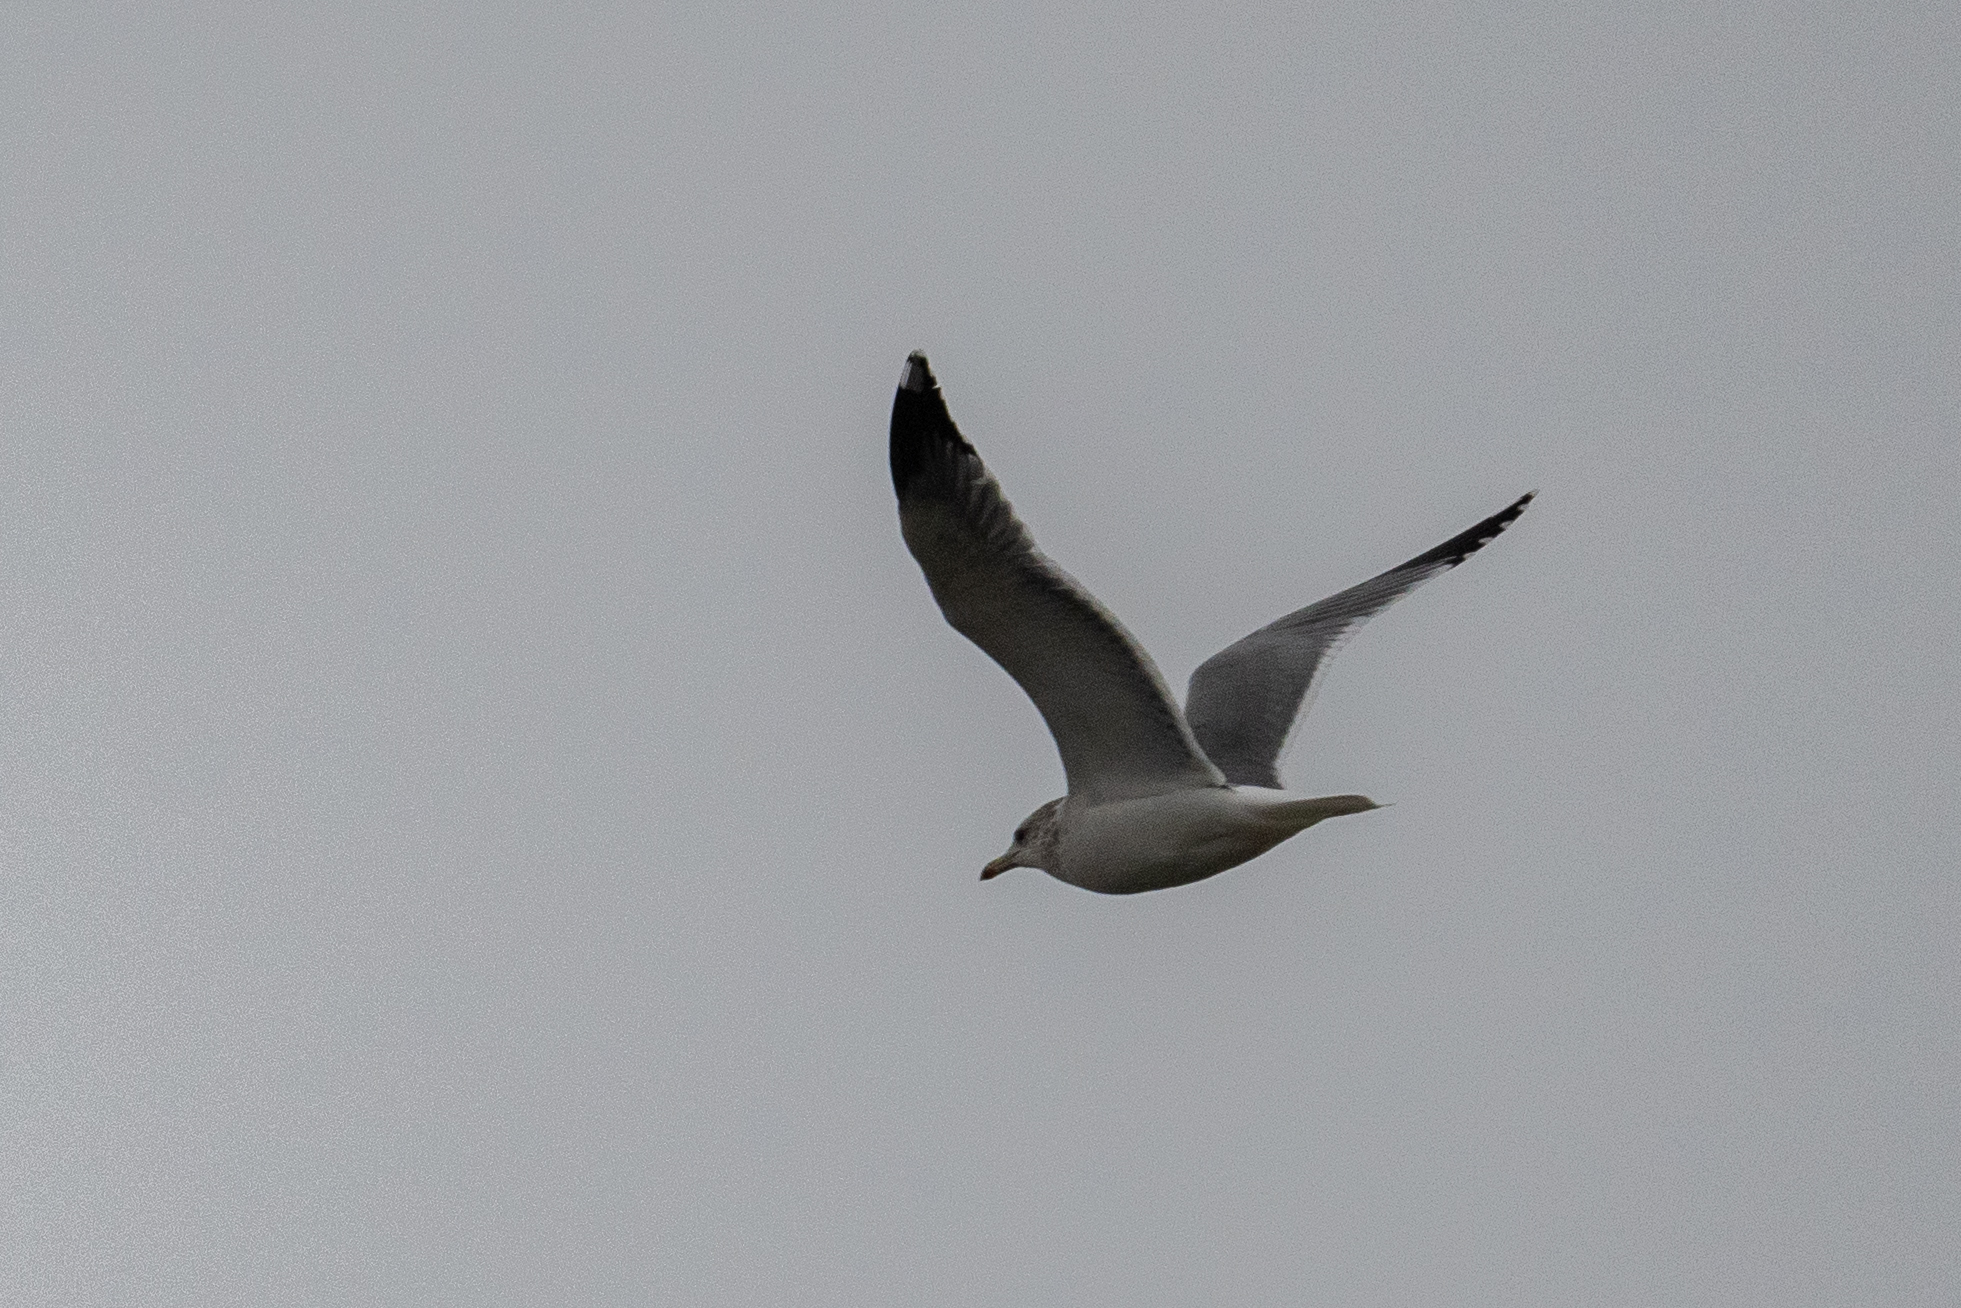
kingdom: Animalia
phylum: Chordata
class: Aves
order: Charadriiformes
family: Laridae
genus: Larus
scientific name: Larus californicus
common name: California gull
